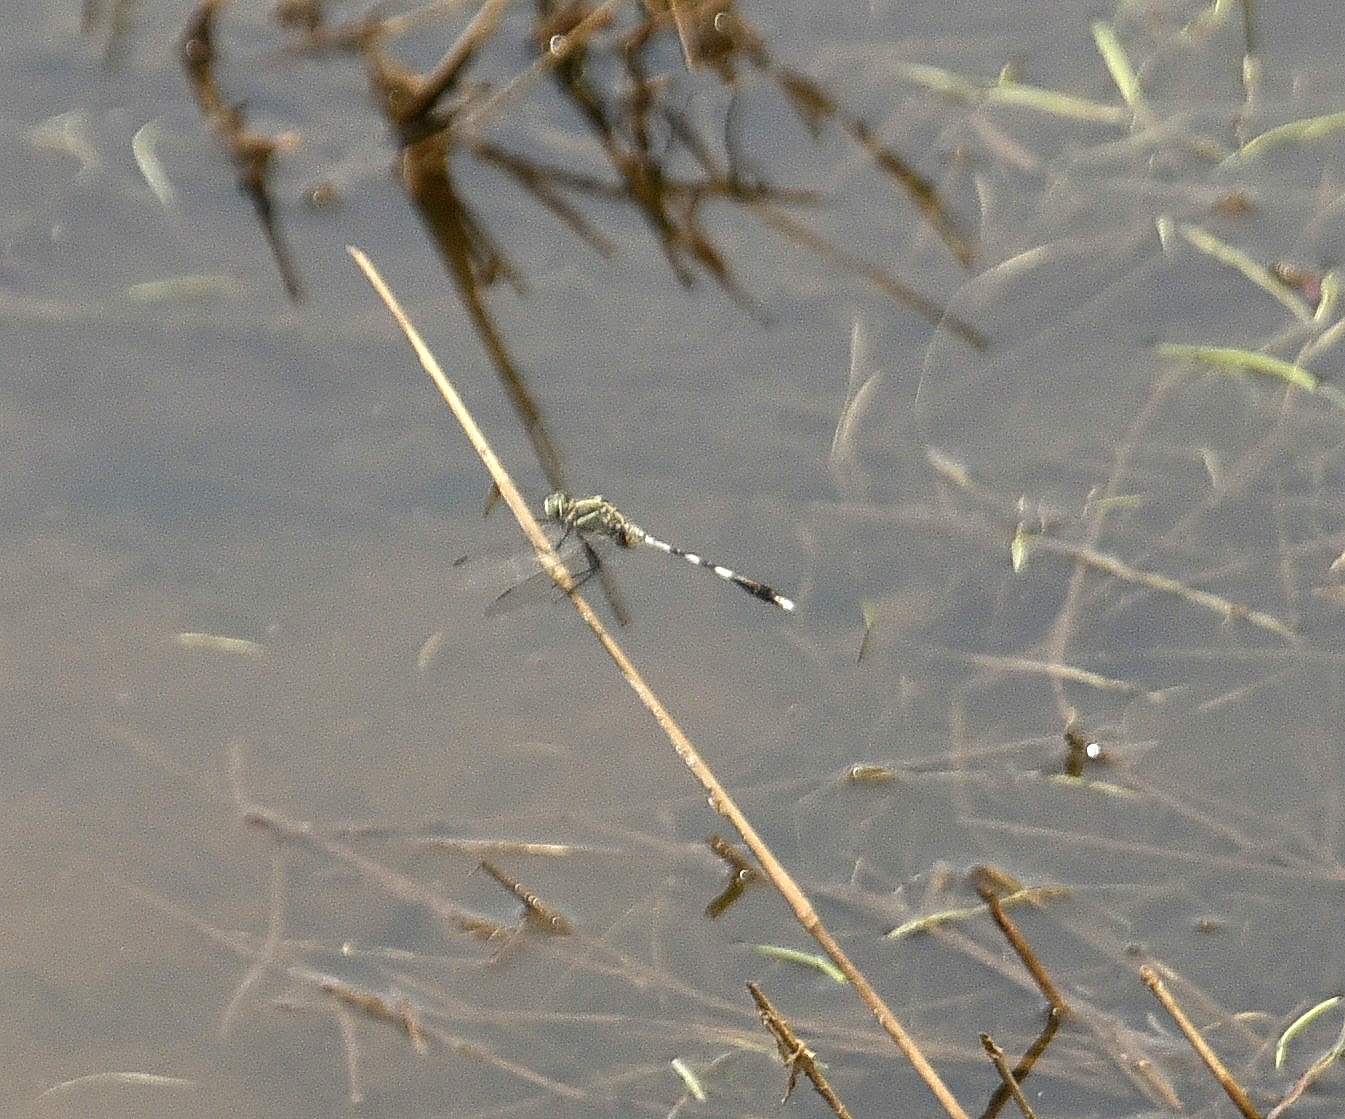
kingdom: Animalia
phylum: Arthropoda
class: Insecta
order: Odonata
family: Libellulidae
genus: Orthetrum
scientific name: Orthetrum sabina
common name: Slender skimmer
